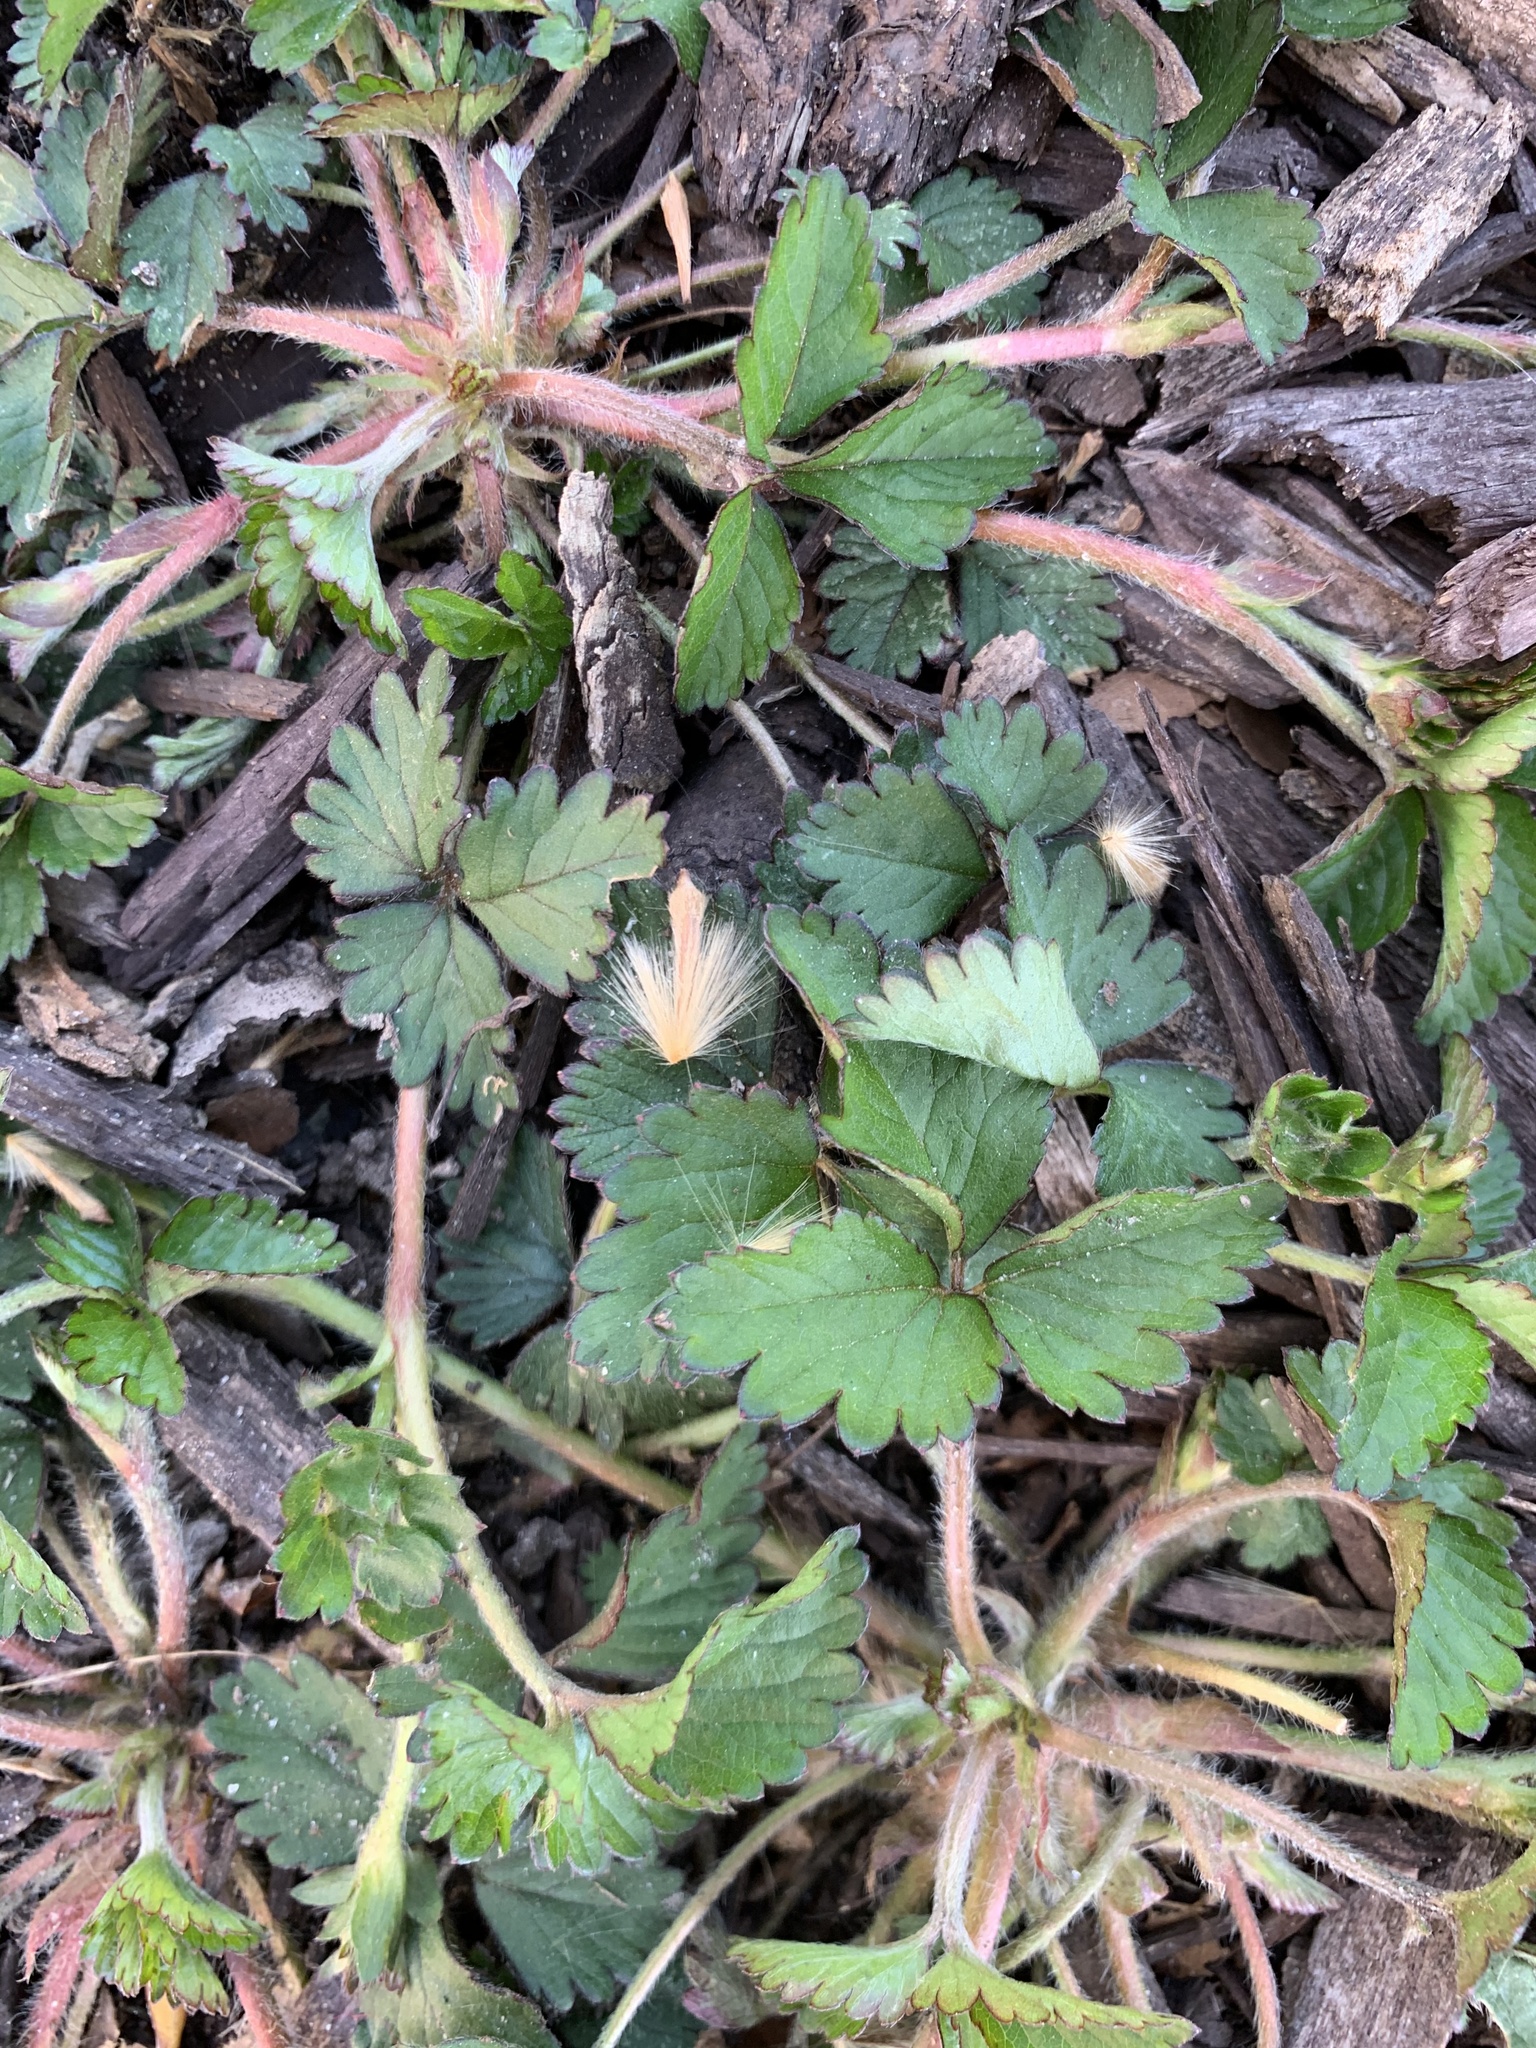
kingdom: Plantae
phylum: Tracheophyta
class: Magnoliopsida
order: Rosales
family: Rosaceae
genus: Potentilla
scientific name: Potentilla indica
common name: Yellow-flowered strawberry
